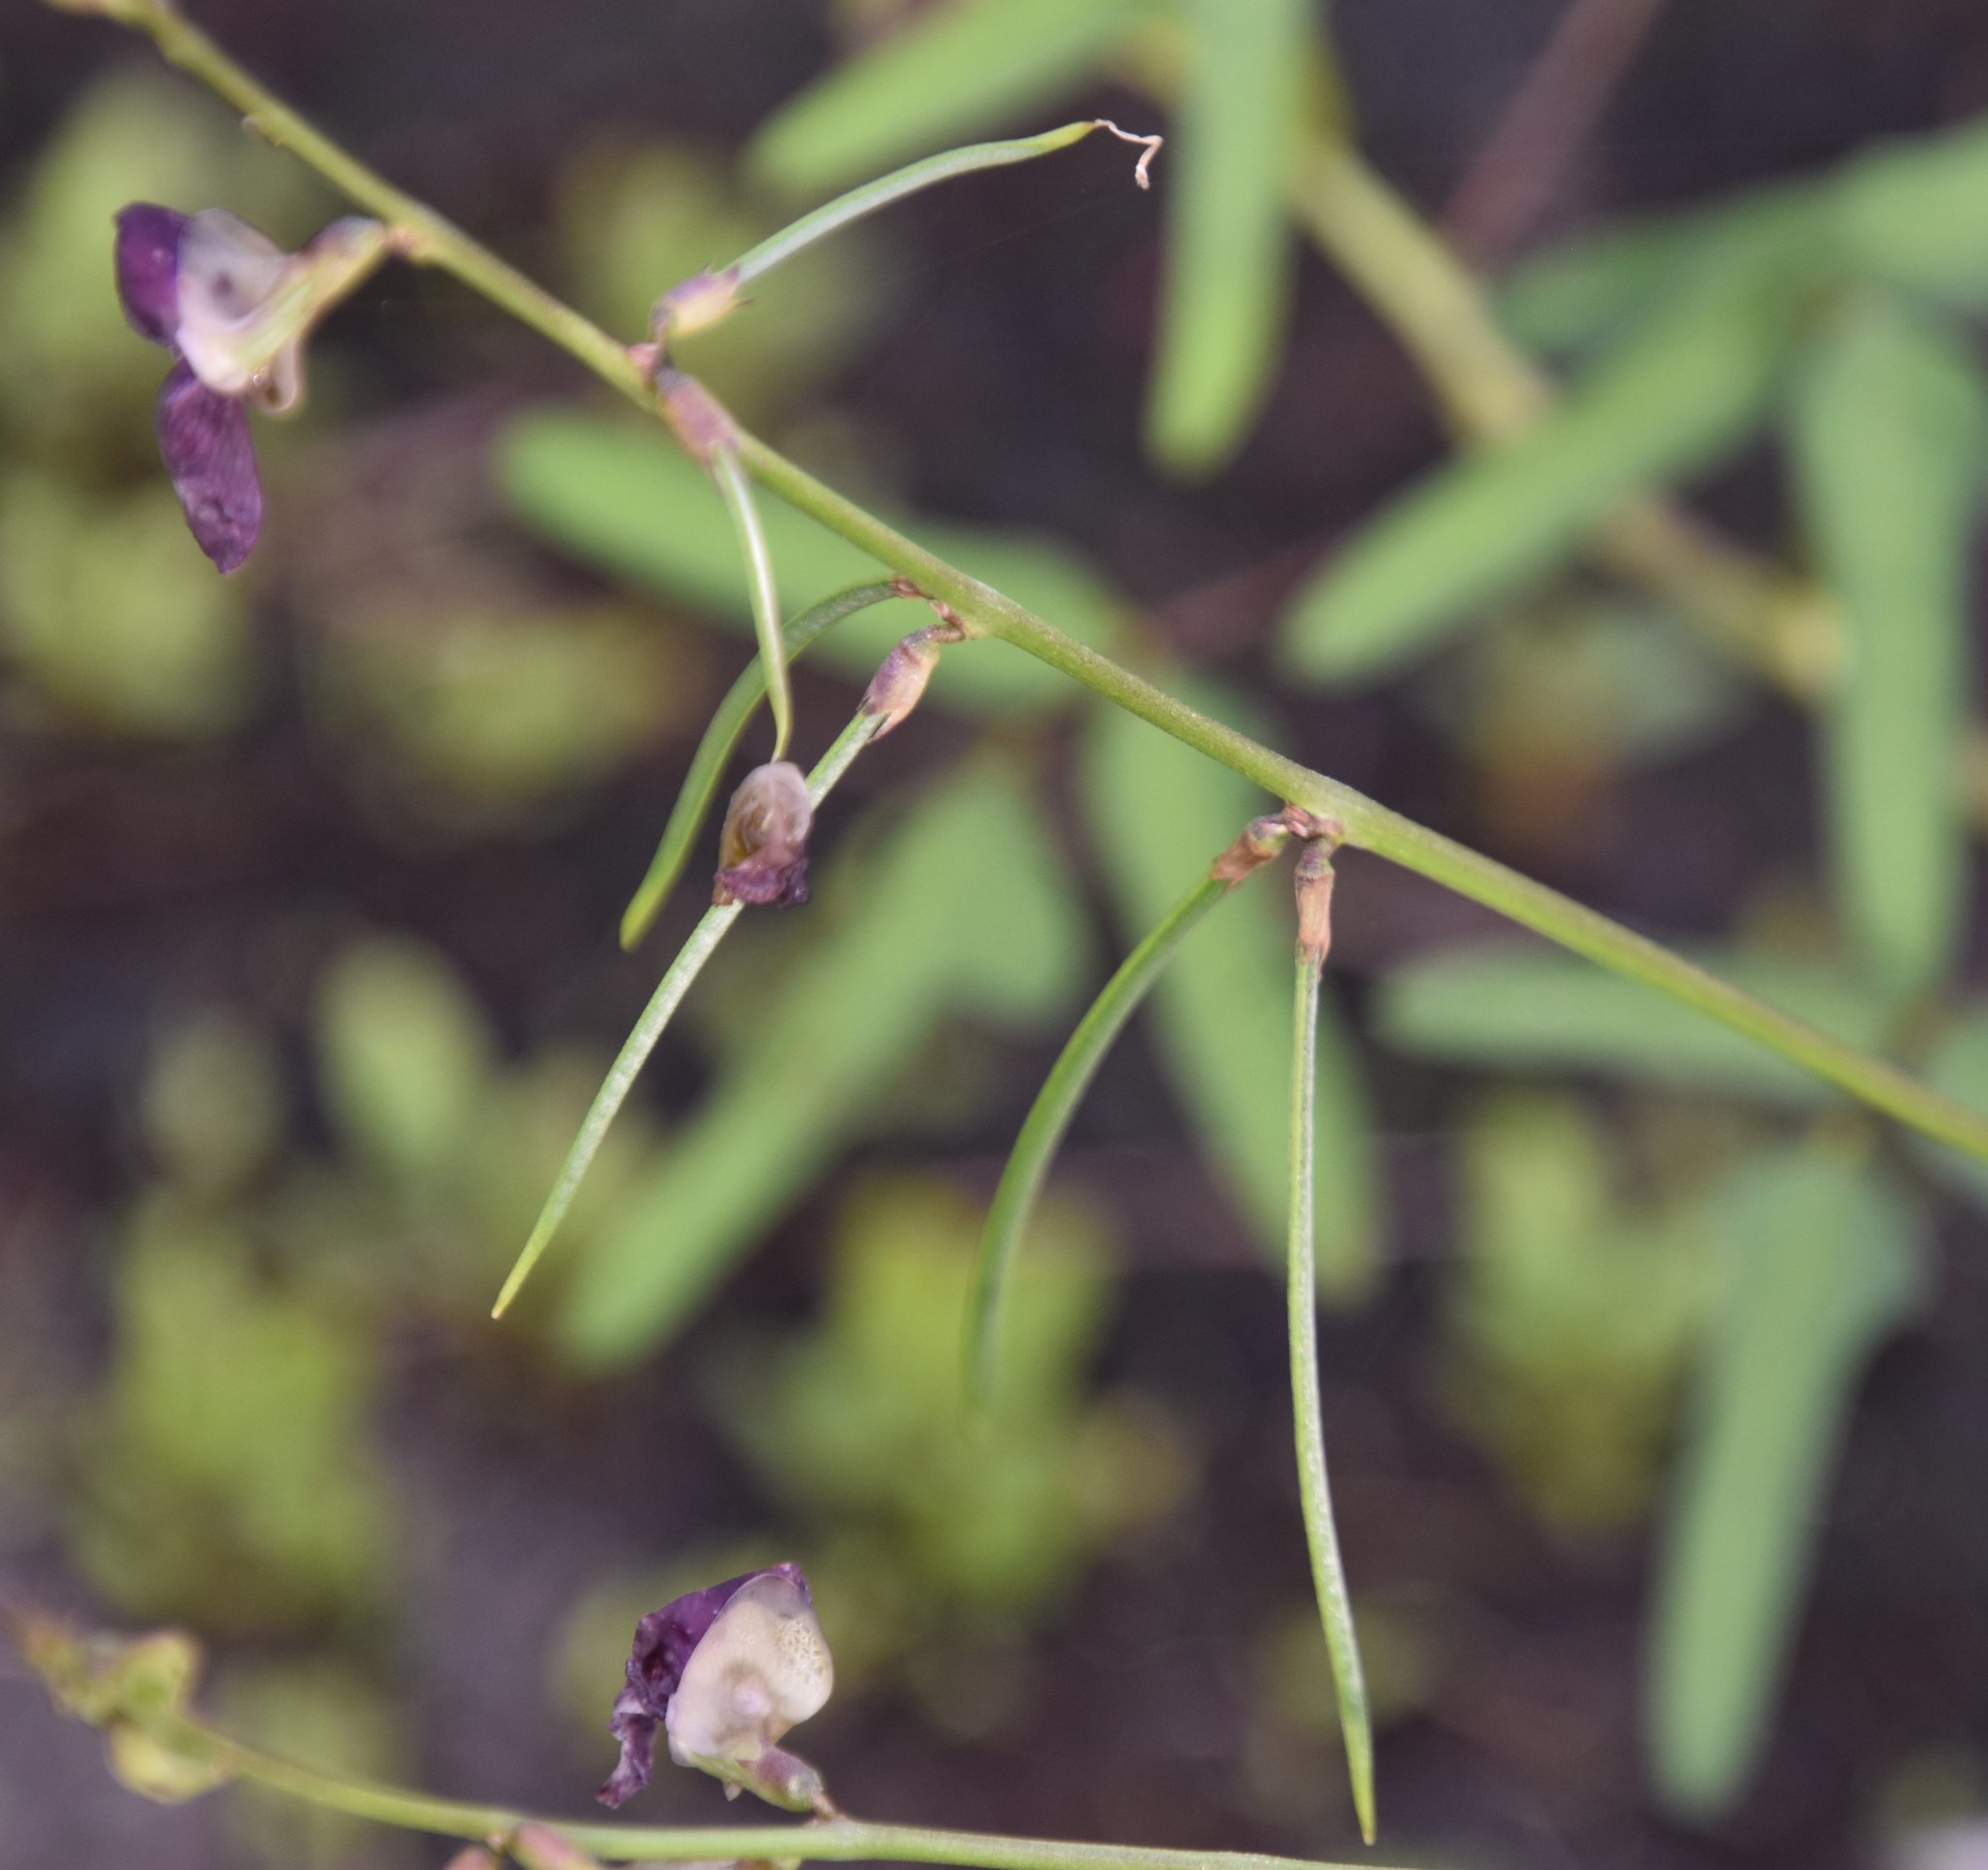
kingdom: Plantae
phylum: Tracheophyta
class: Magnoliopsida
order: Fabales
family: Fabaceae
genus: Macroptilium
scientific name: Macroptilium lathyroides
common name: Wild bushbean
